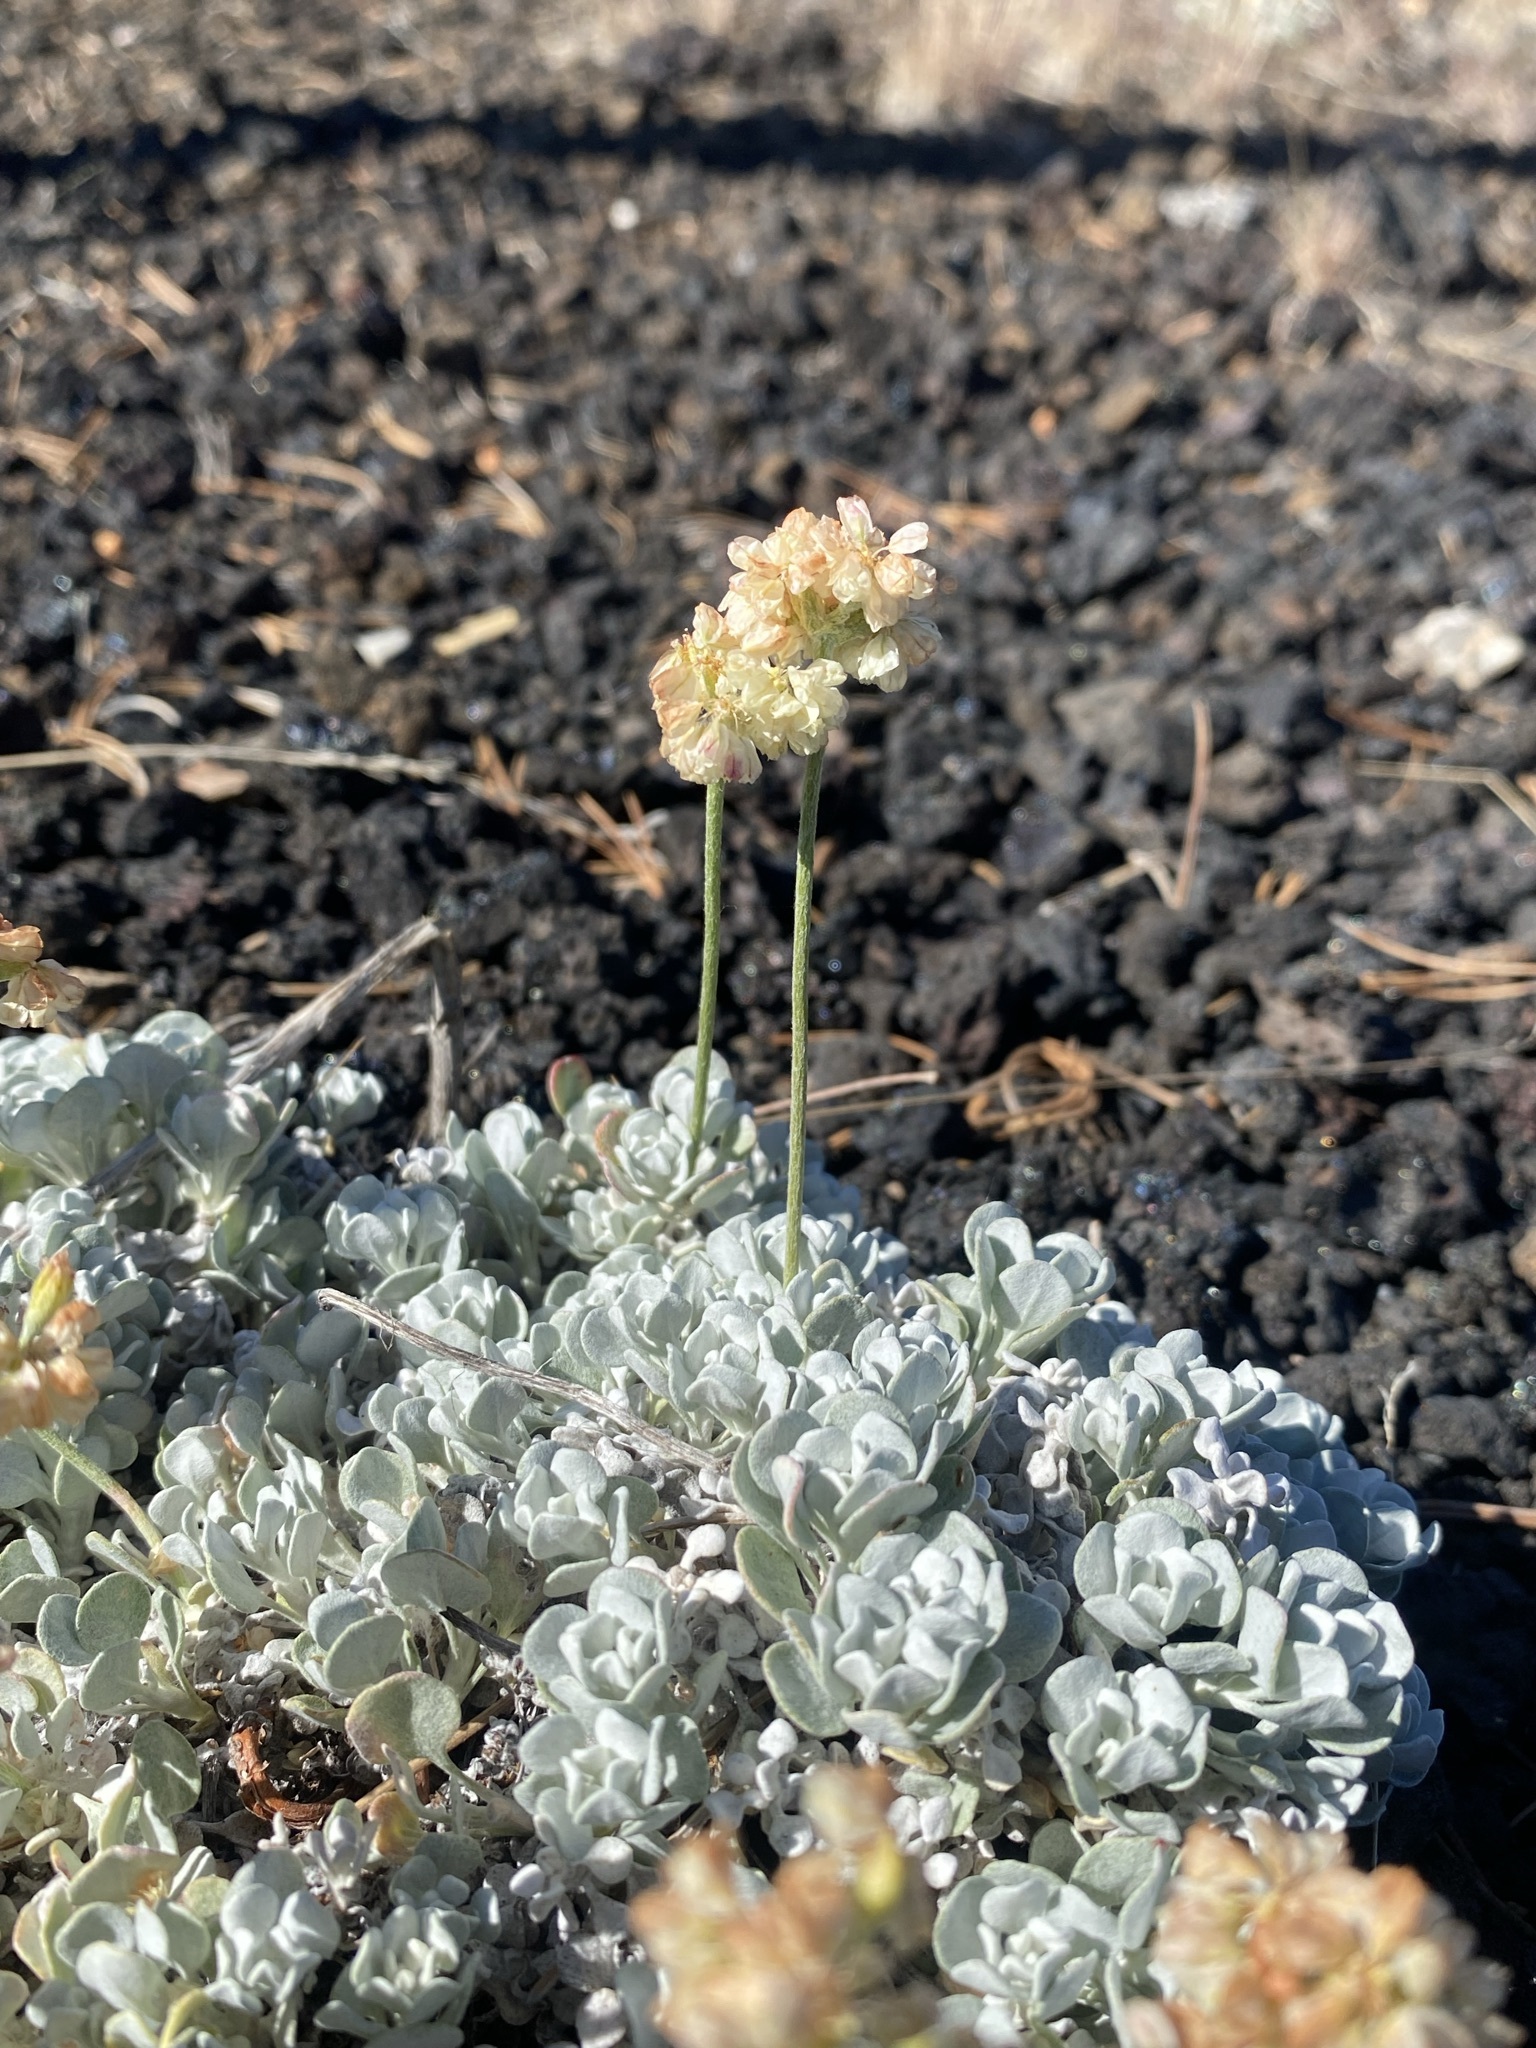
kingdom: Plantae
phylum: Tracheophyta
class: Magnoliopsida
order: Caryophyllales
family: Polygonaceae
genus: Eriogonum
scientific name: Eriogonum ovalifolium
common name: Cushion buckwheat
